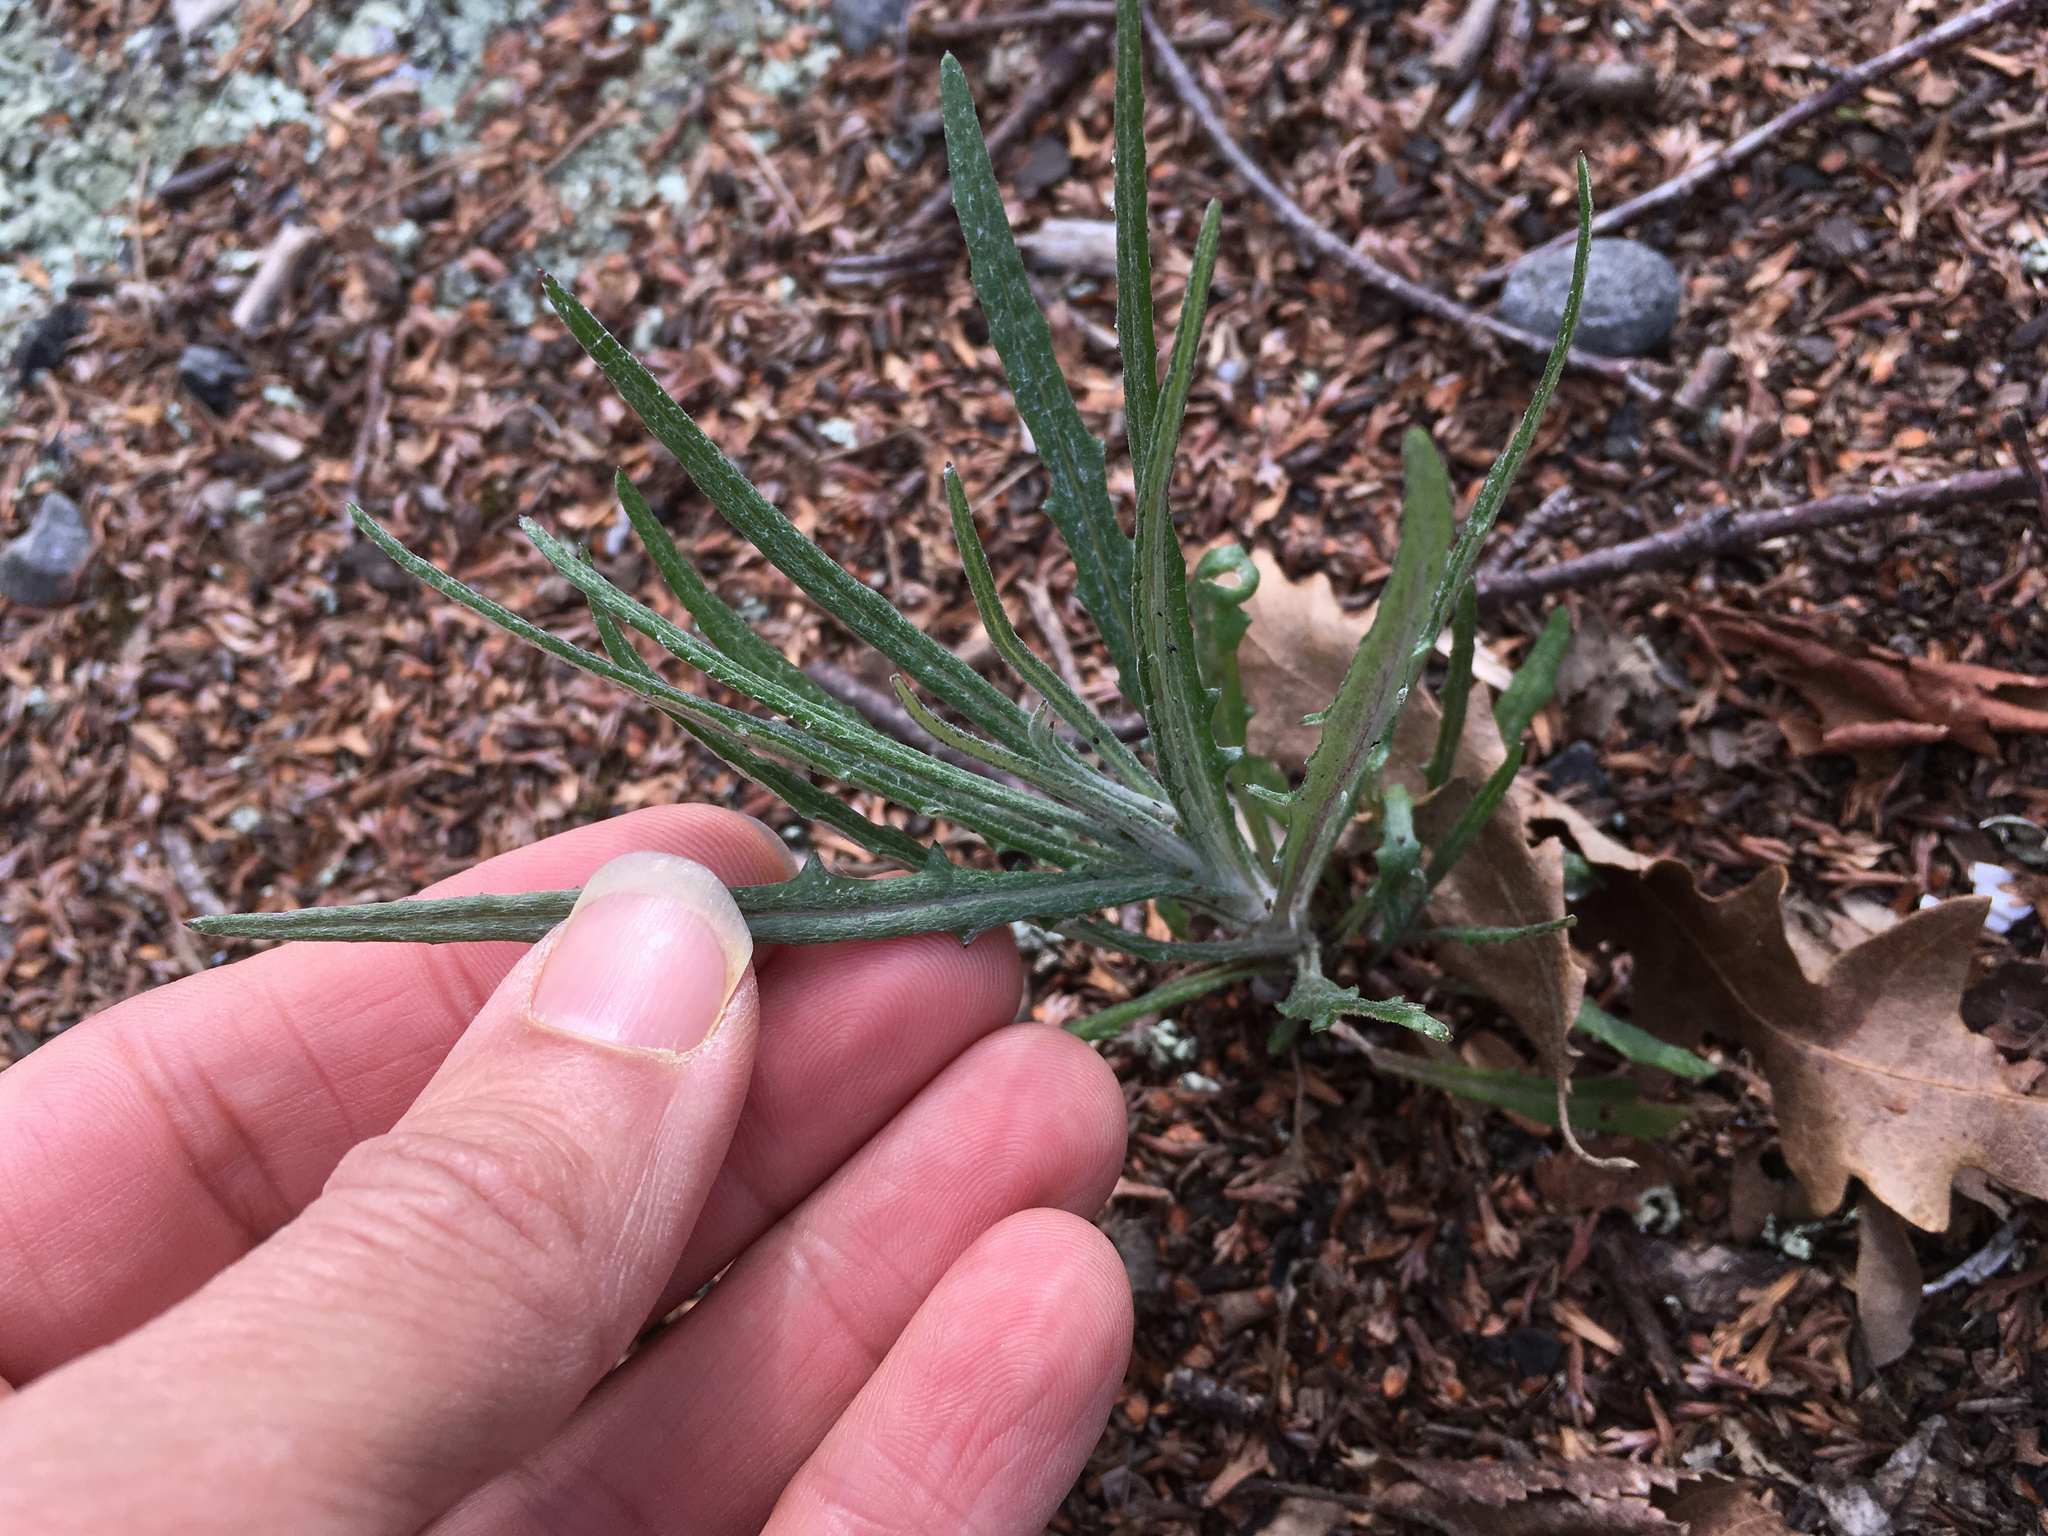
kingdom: Plantae
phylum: Tracheophyta
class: Magnoliopsida
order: Asterales
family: Asteraceae
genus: Senecio
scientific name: Senecio quadridentatus
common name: Cotton fireweed
